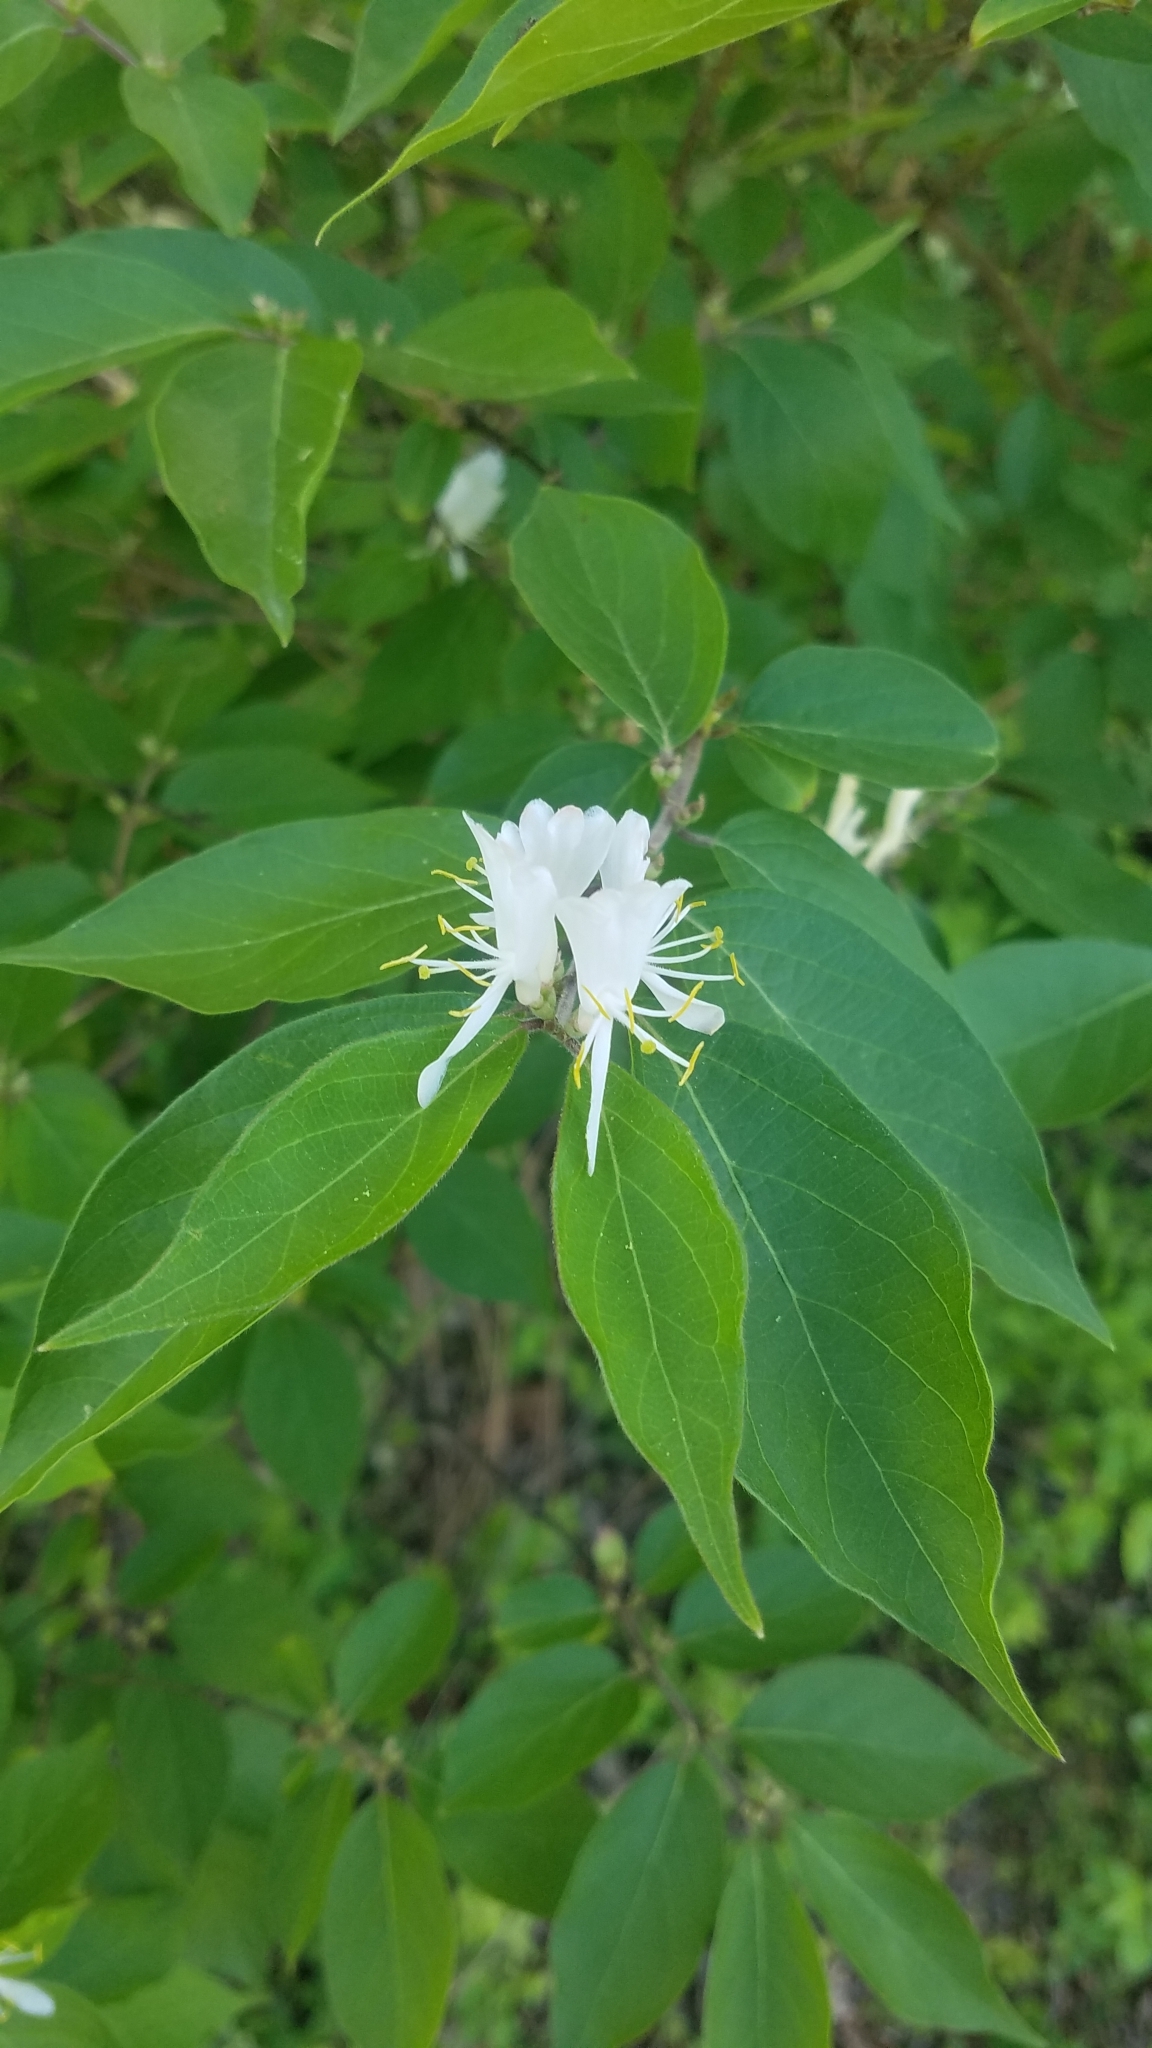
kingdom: Plantae
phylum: Tracheophyta
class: Magnoliopsida
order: Dipsacales
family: Caprifoliaceae
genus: Lonicera
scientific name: Lonicera maackii
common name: Amur honeysuckle
